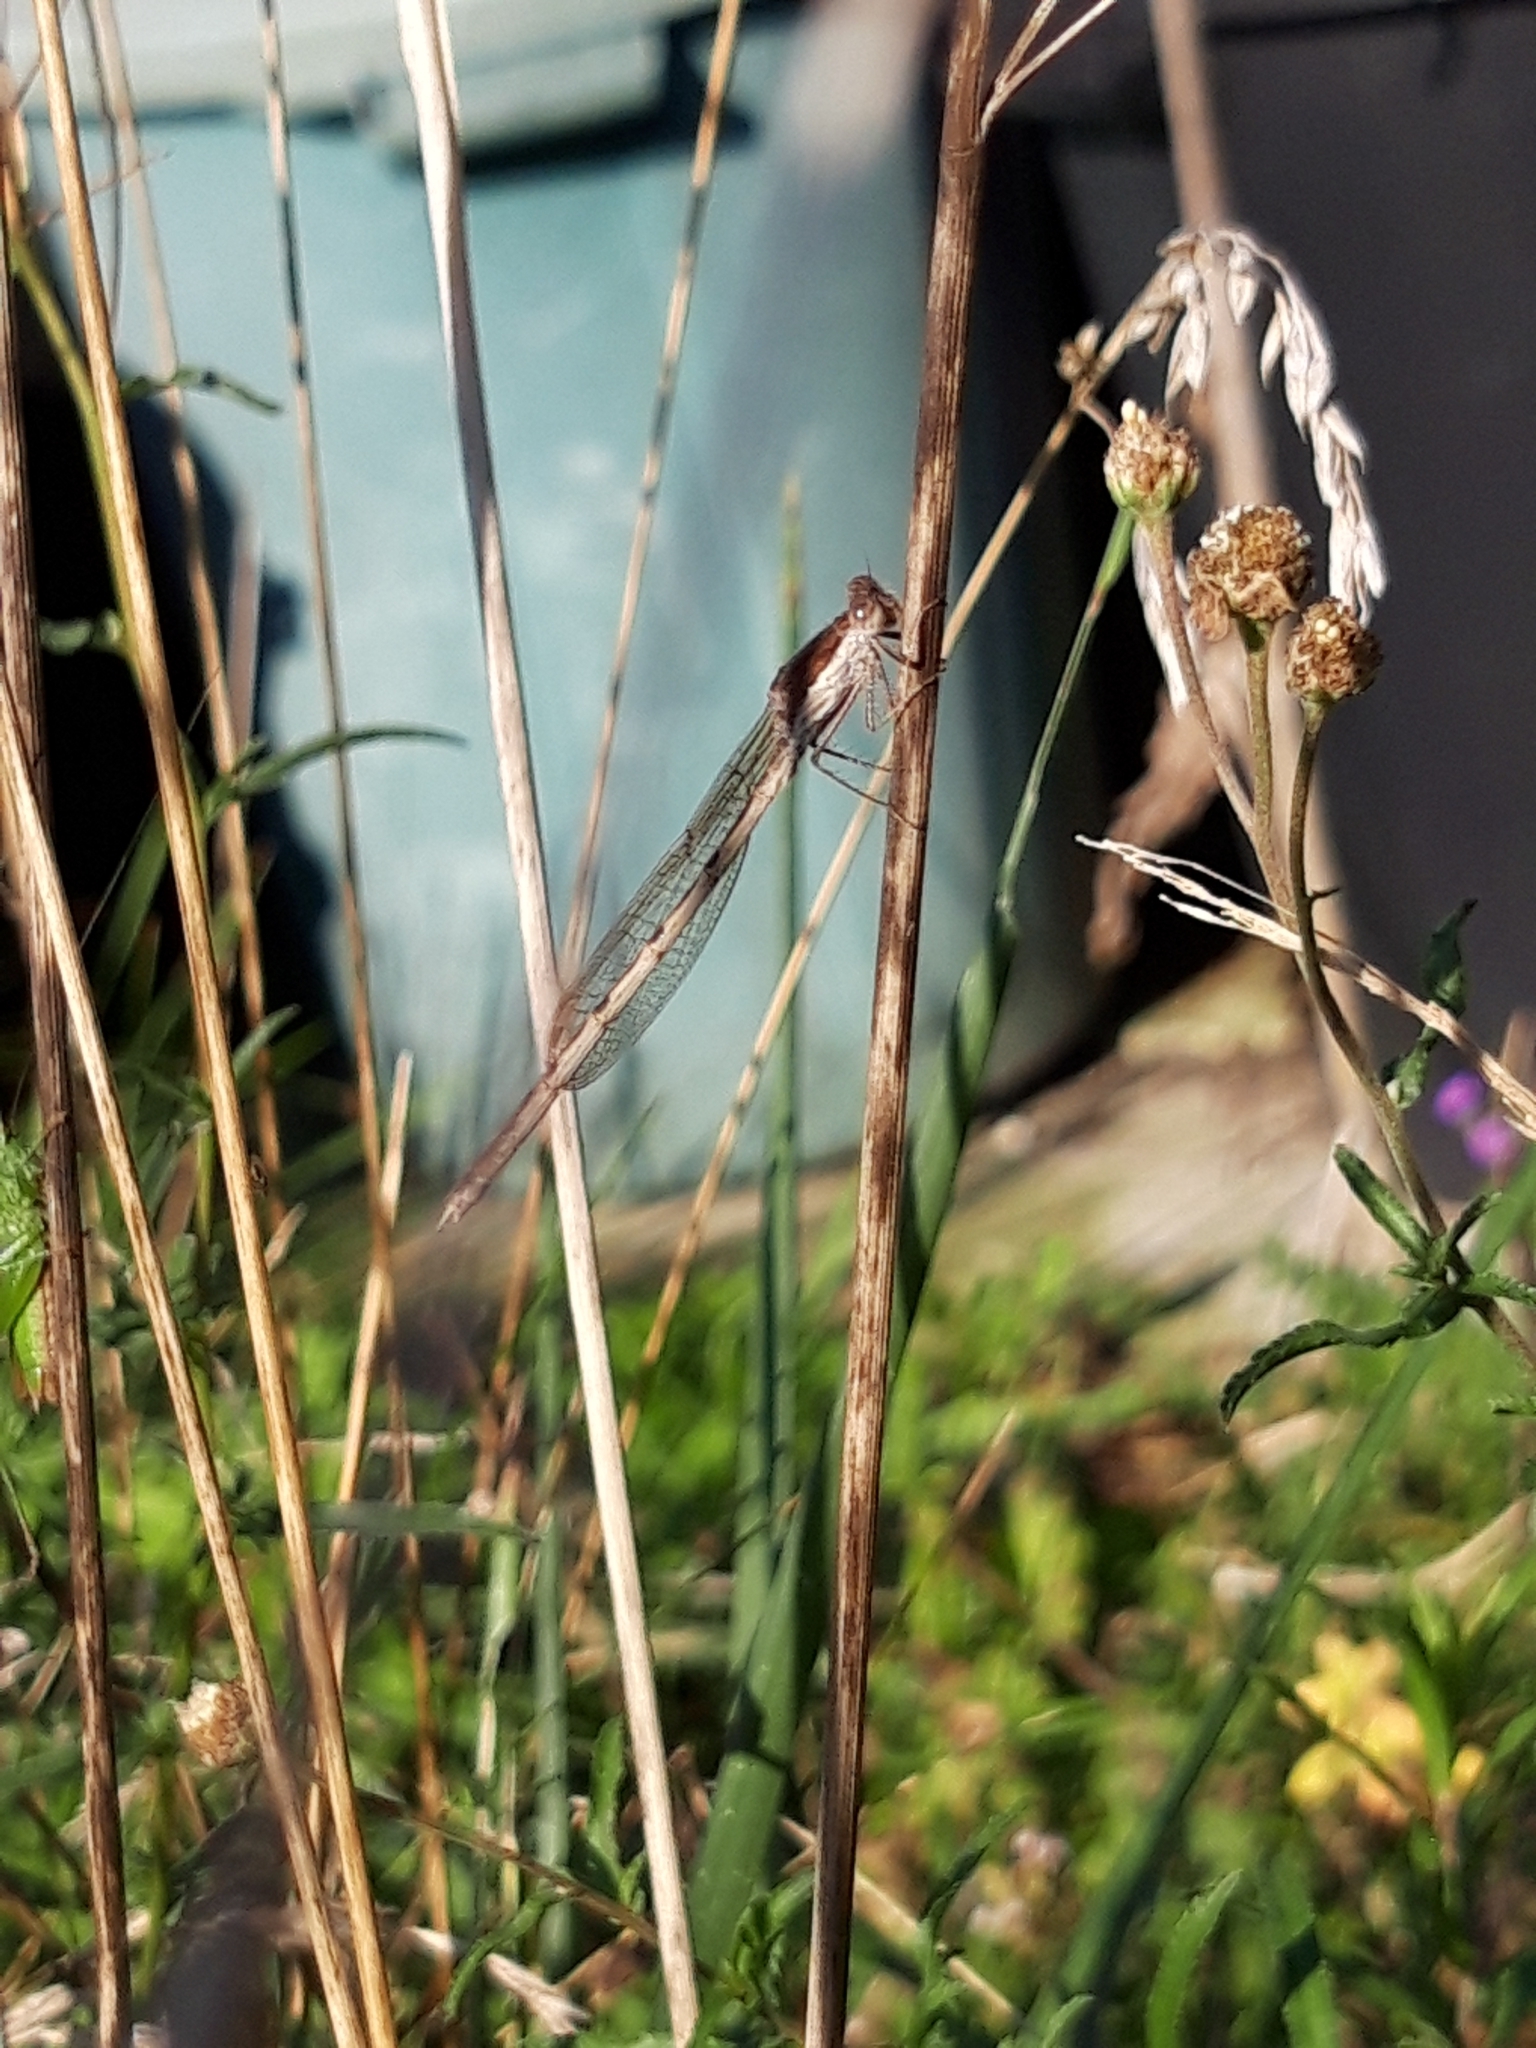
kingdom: Animalia
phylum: Arthropoda
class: Insecta
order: Odonata
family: Lestidae
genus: Sympecma
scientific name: Sympecma fusca
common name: Common winter damsel
